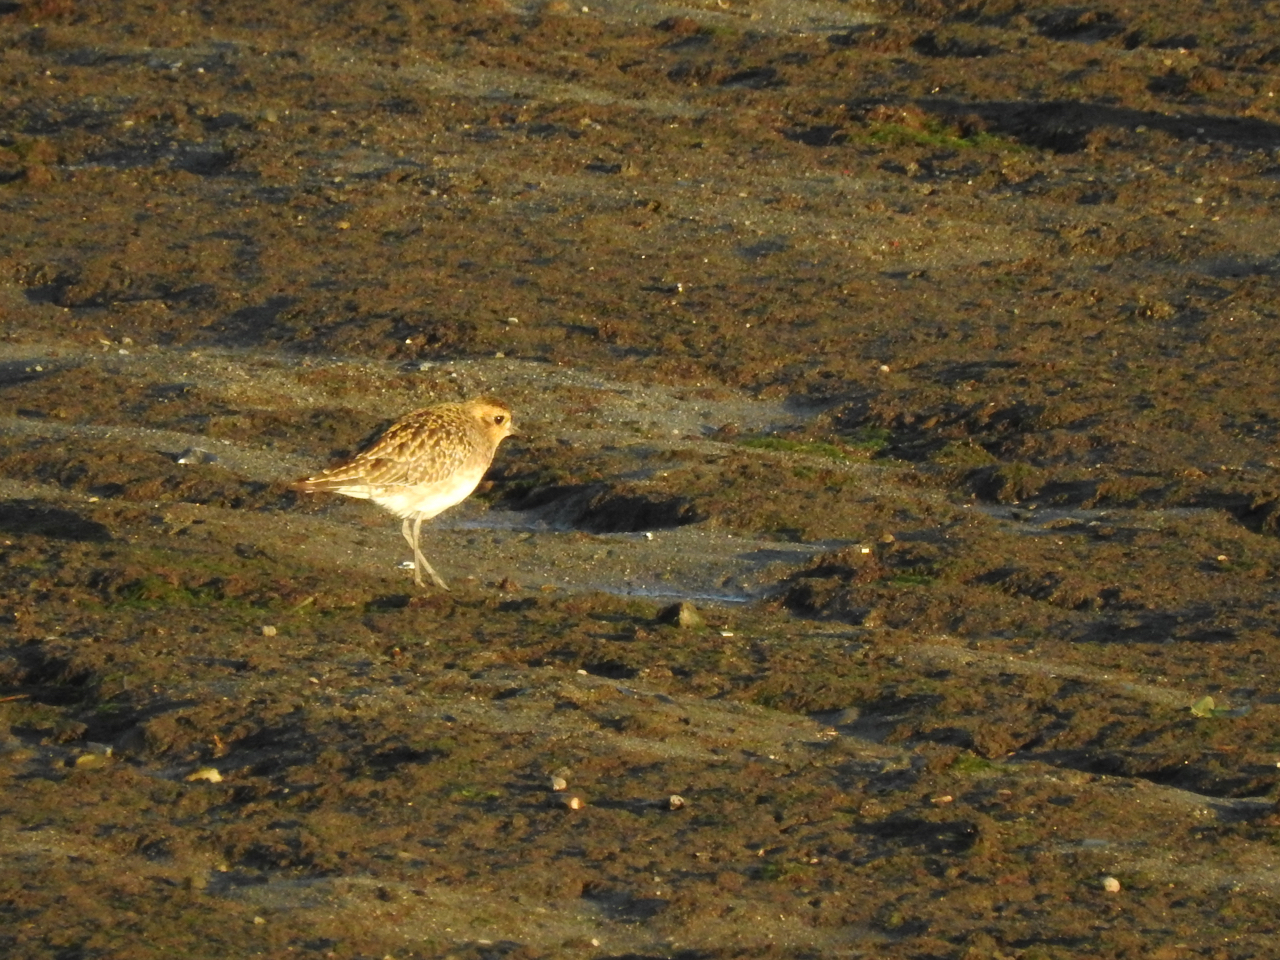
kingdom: Animalia
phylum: Chordata
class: Aves
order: Charadriiformes
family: Charadriidae
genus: Pluvialis
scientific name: Pluvialis fulva
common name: Pacific golden plover
